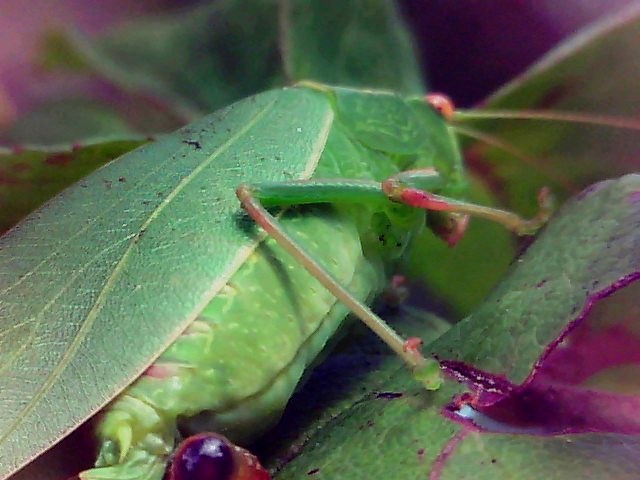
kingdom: Animalia
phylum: Arthropoda
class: Insecta
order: Orthoptera
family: Tettigoniidae
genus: Caedicia
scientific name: Caedicia simplex
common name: Common garden katydid
